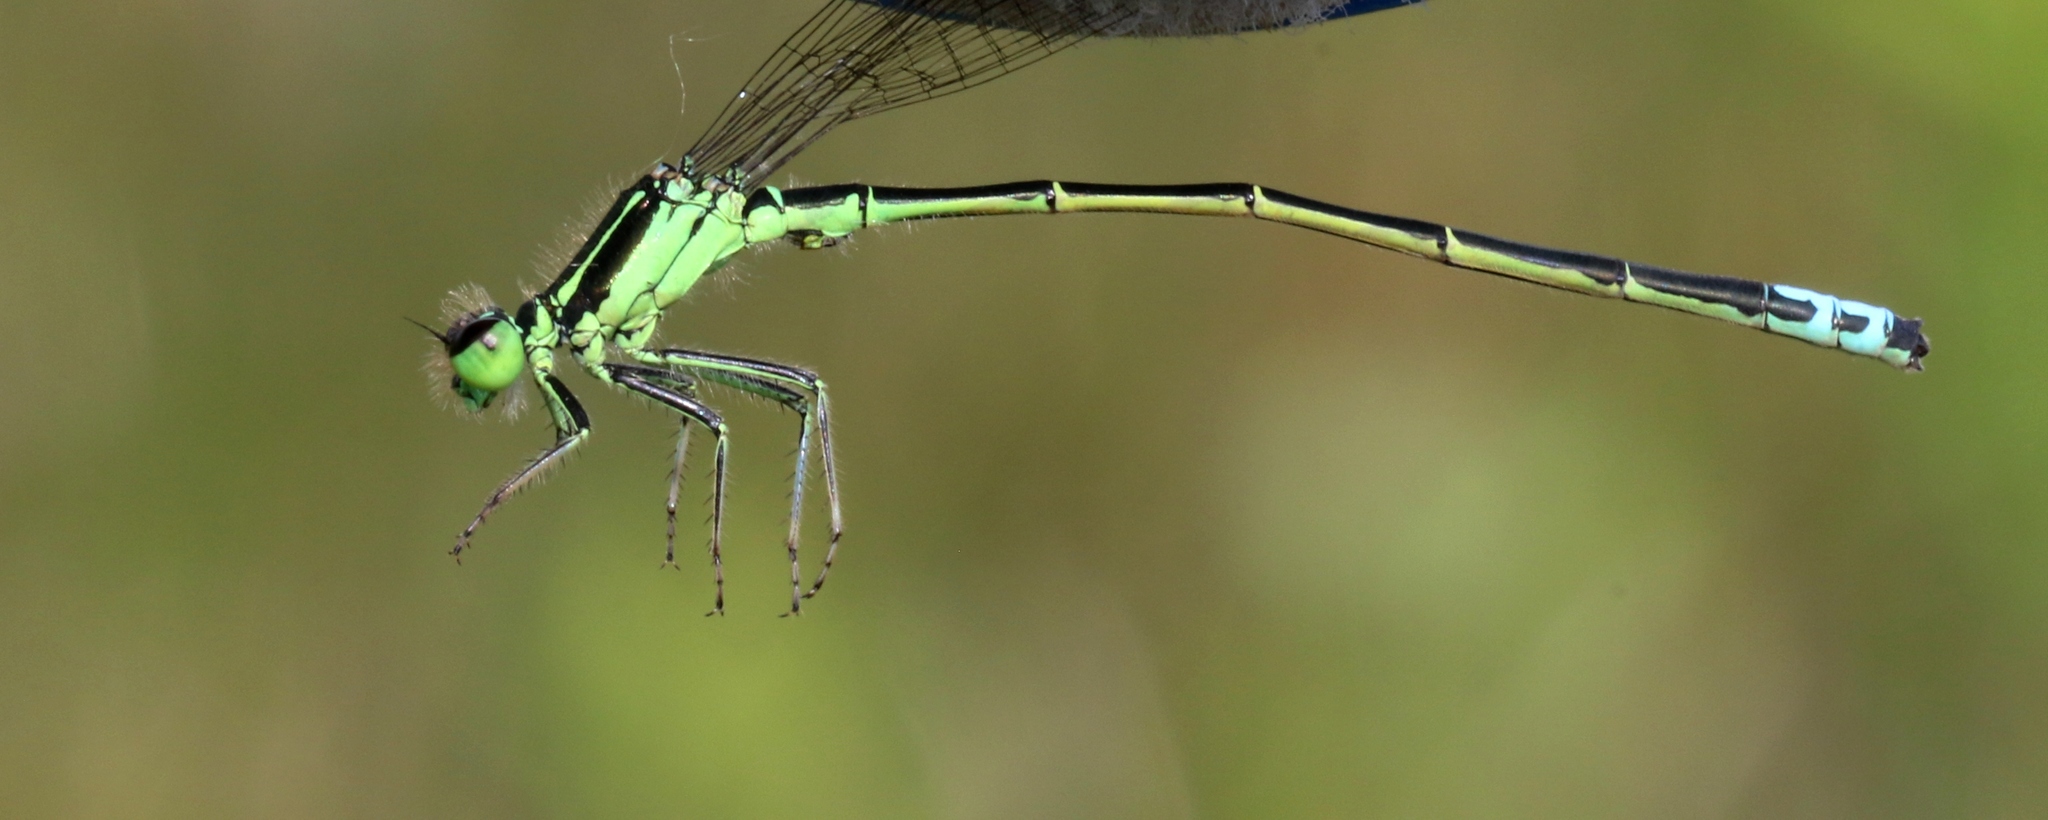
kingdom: Animalia
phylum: Arthropoda
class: Insecta
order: Odonata
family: Coenagrionidae
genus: Ischnura
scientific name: Ischnura verticalis
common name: Eastern forktail
